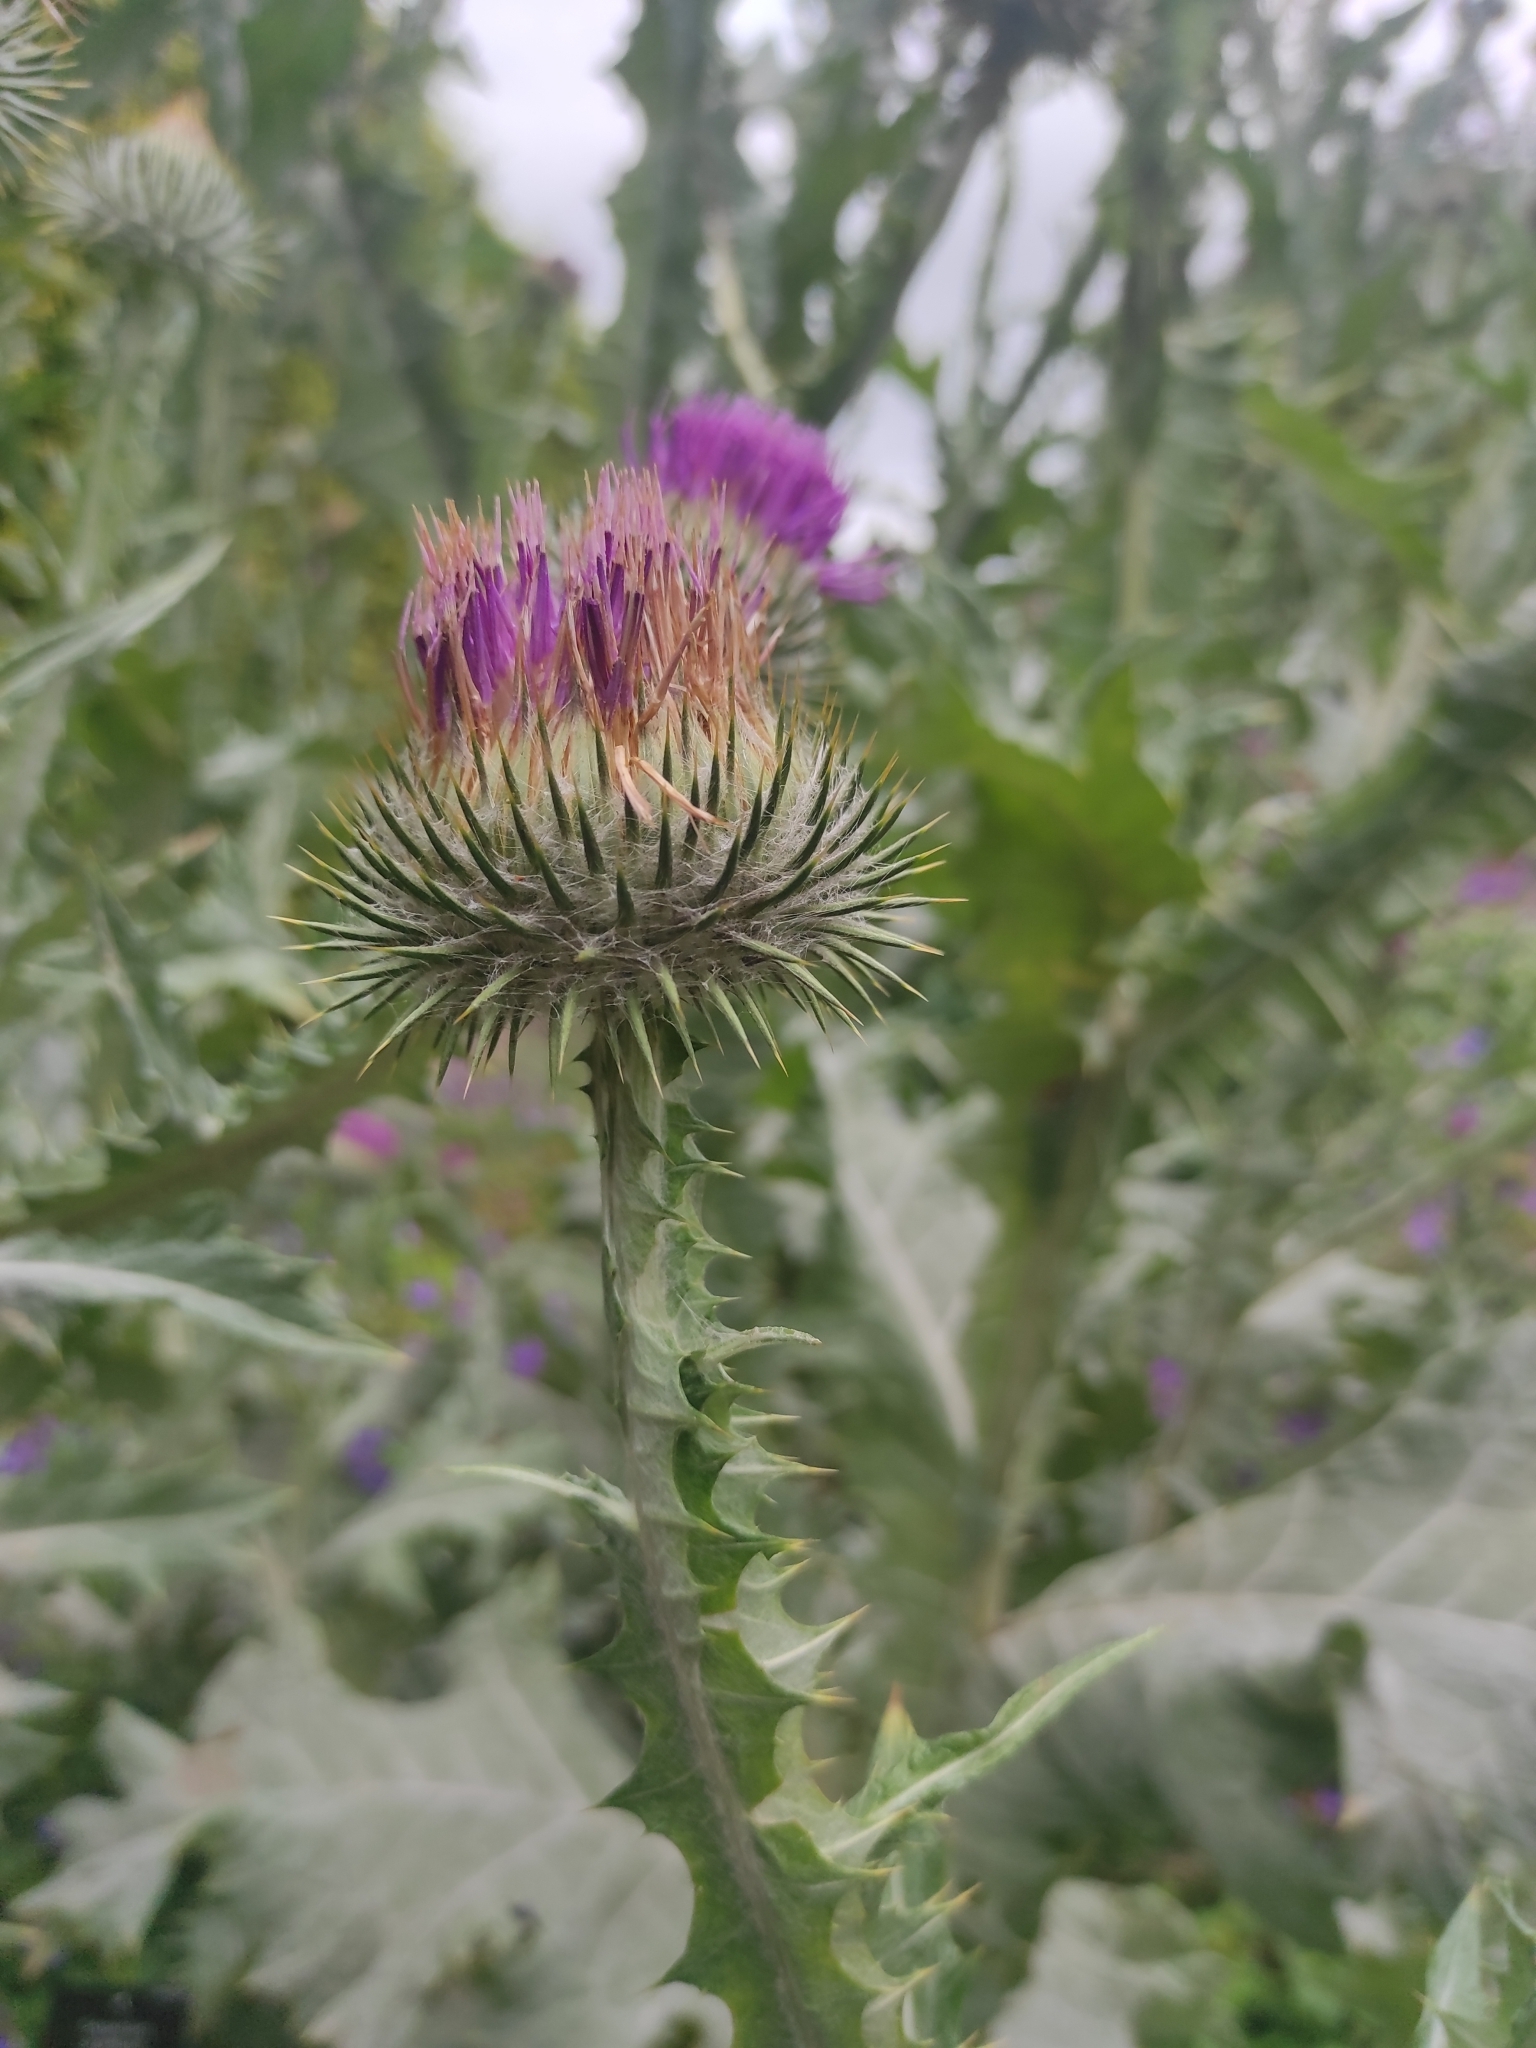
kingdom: Plantae
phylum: Tracheophyta
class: Magnoliopsida
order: Asterales
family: Asteraceae
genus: Onopordum
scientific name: Onopordum acanthium
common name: Scotch thistle
